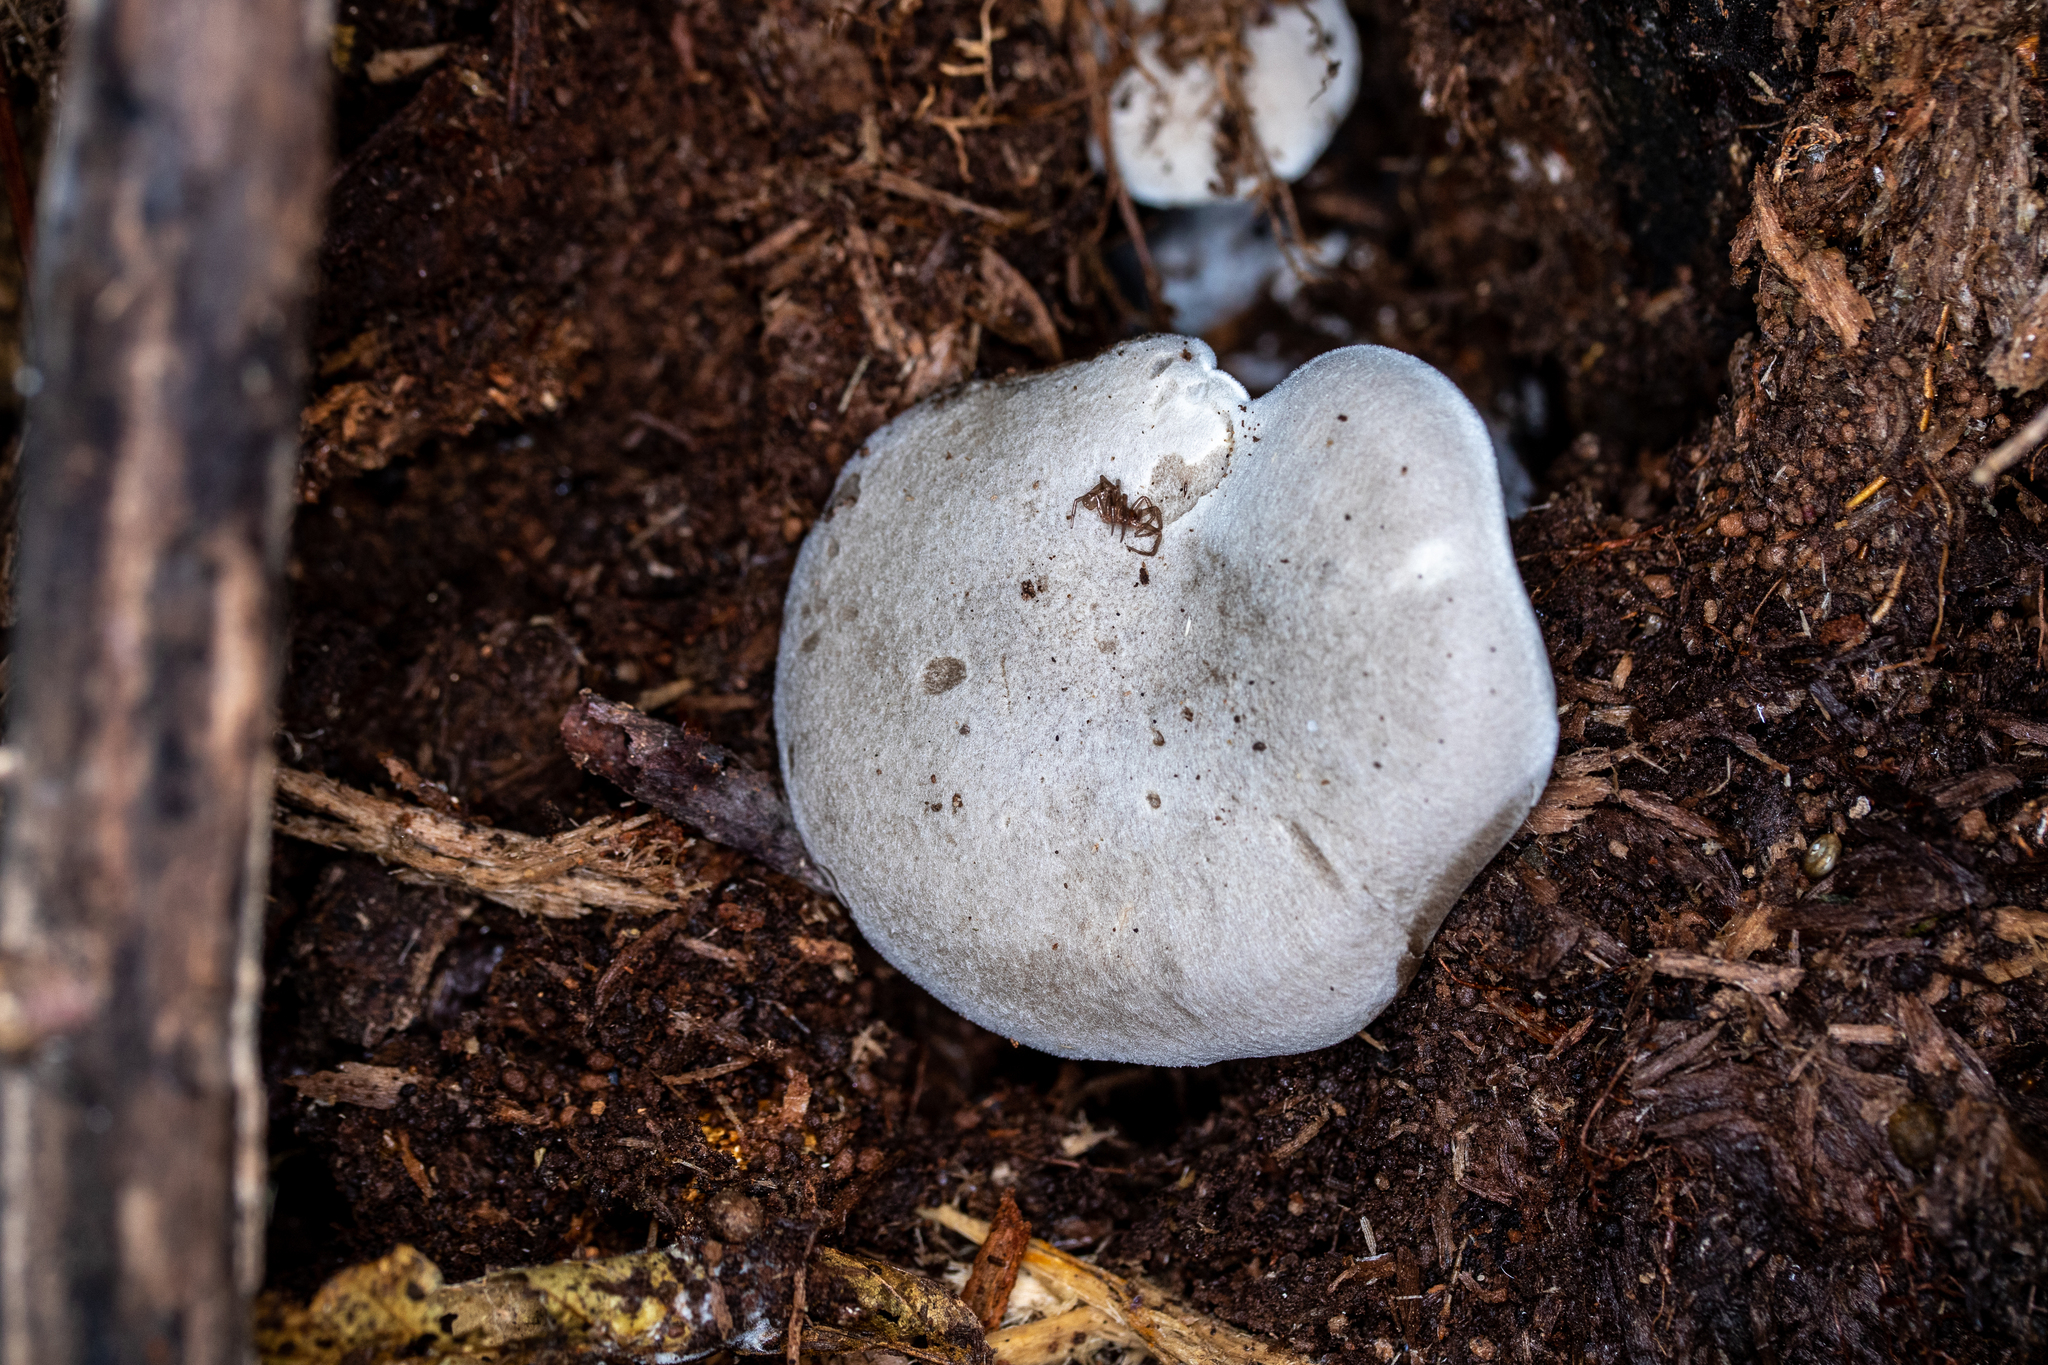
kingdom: Fungi
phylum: Basidiomycota
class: Agaricomycetes
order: Agaricales
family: Entolomataceae
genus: Entoloma
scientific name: Entoloma abortivum
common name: Aborted entoloma
